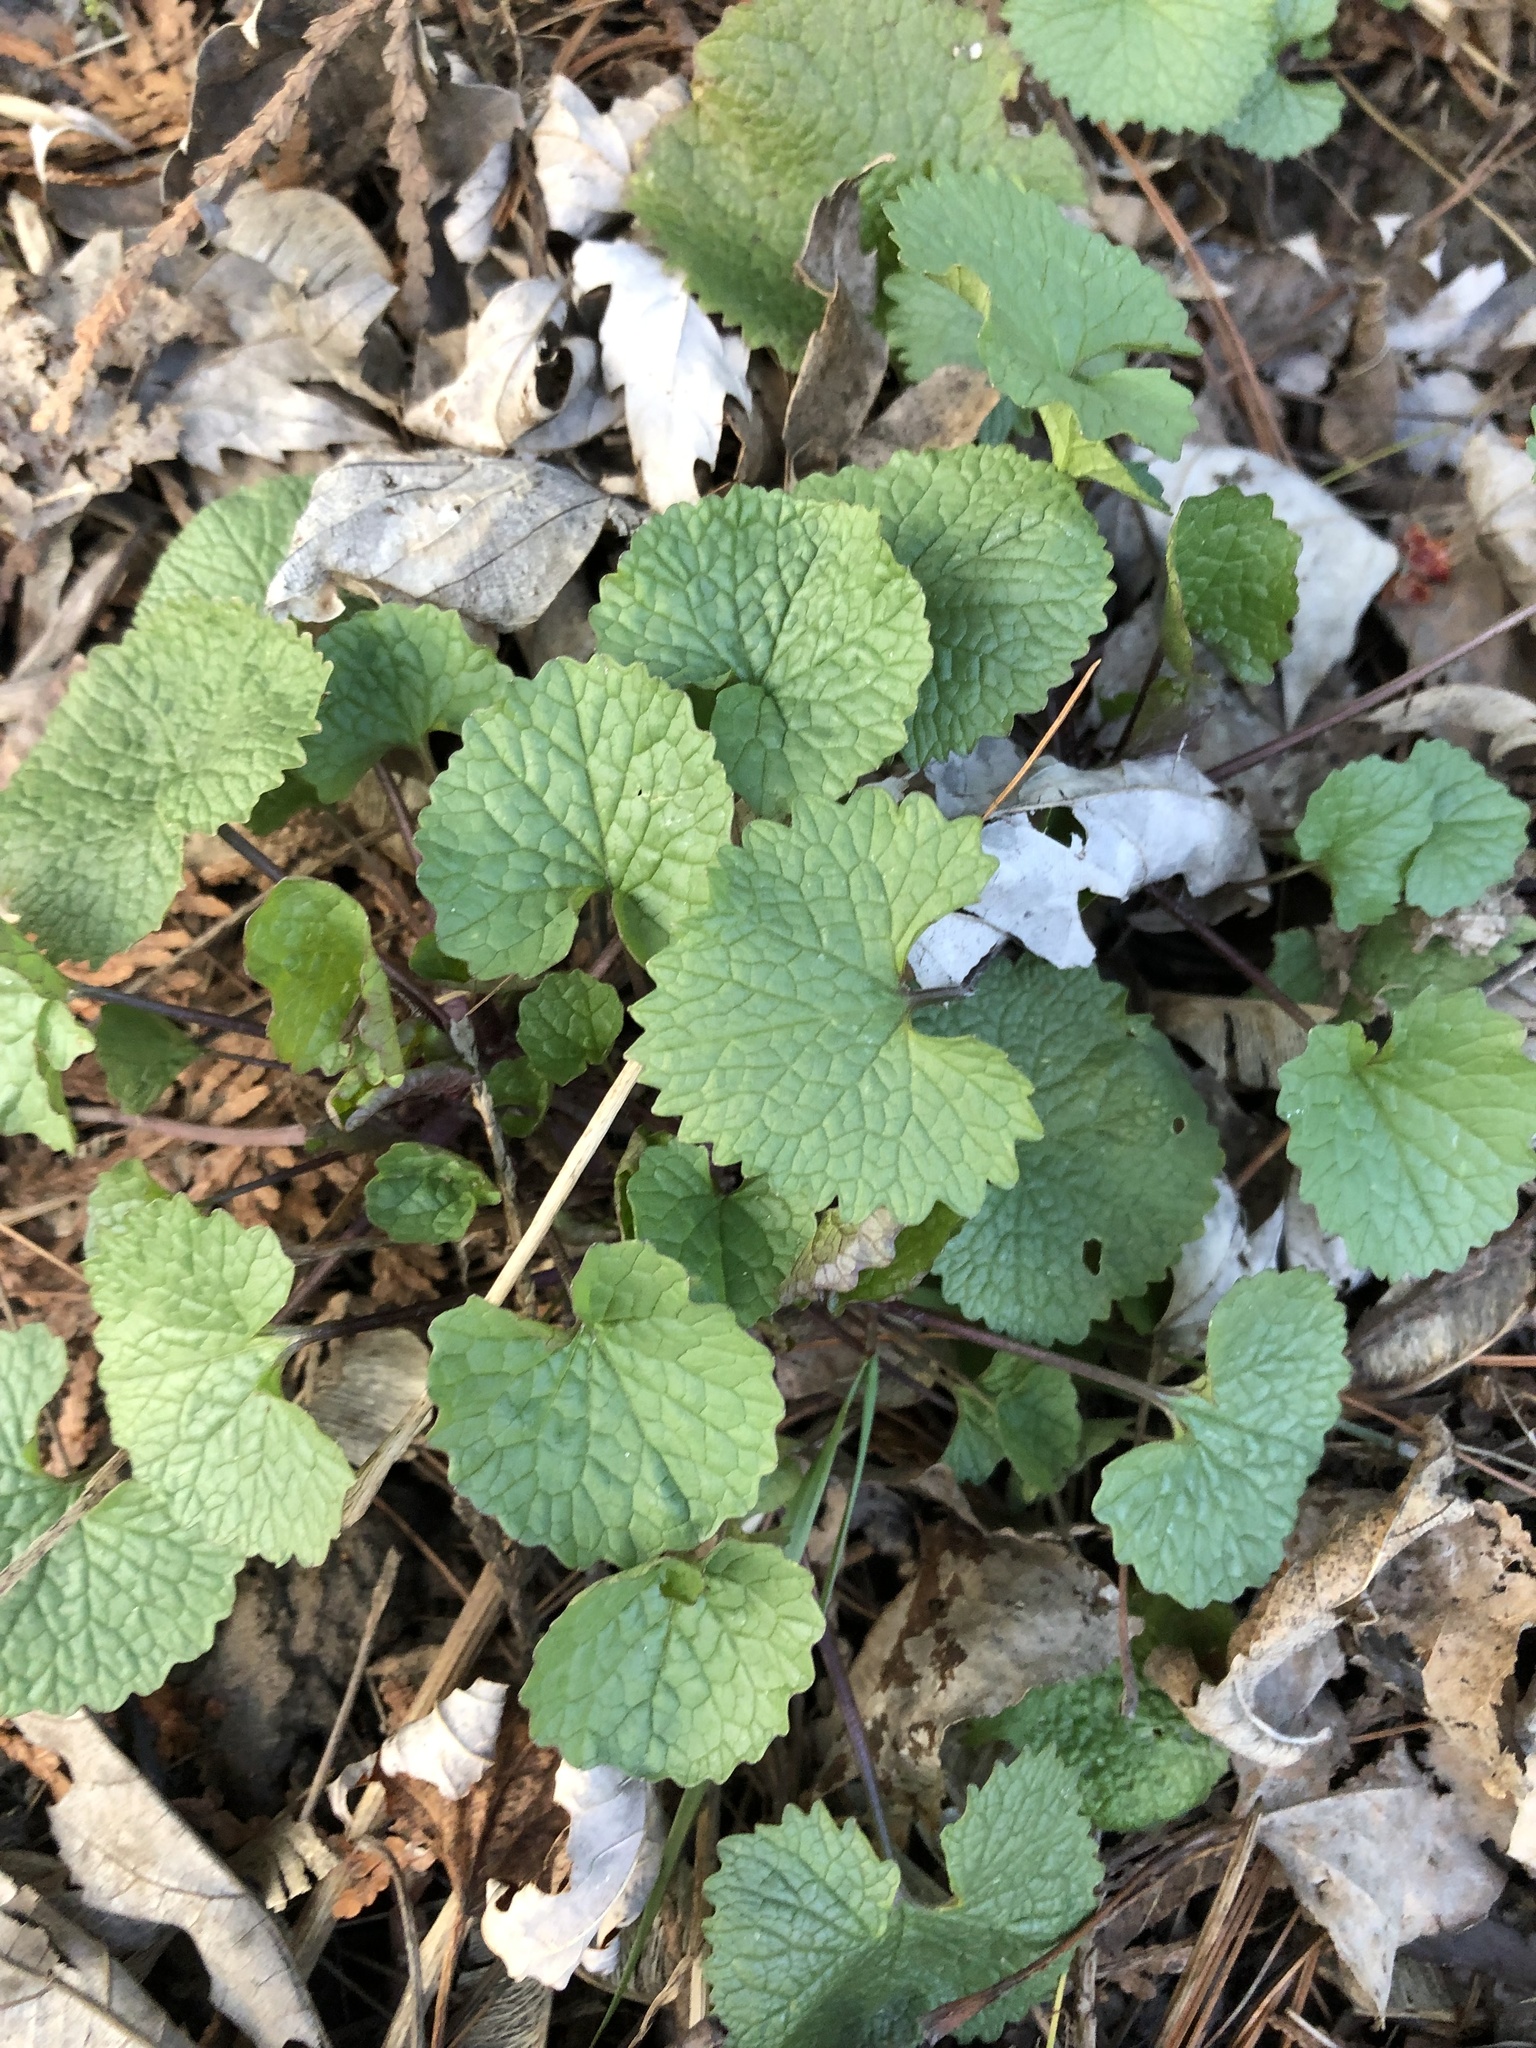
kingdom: Plantae
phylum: Tracheophyta
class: Magnoliopsida
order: Brassicales
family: Brassicaceae
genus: Alliaria
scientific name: Alliaria petiolata
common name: Garlic mustard
